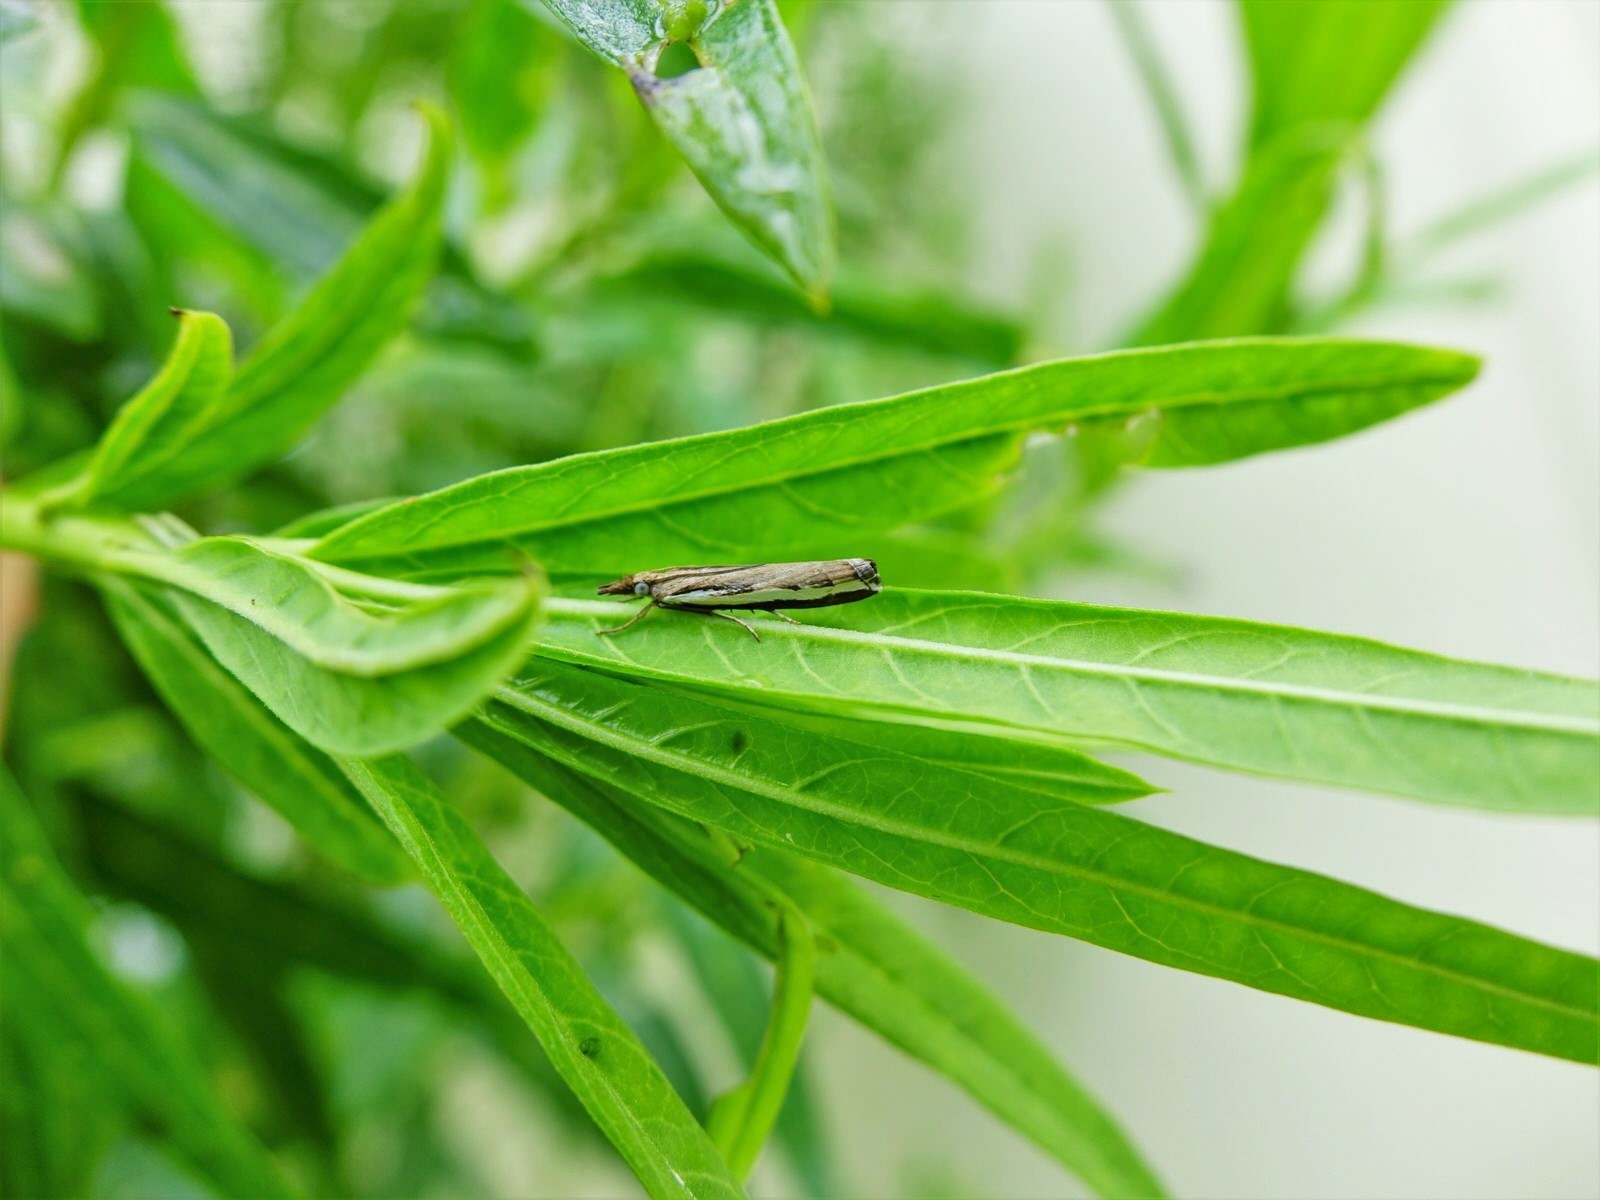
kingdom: Animalia
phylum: Arthropoda
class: Insecta
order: Lepidoptera
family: Crambidae
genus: Orocrambus
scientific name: Orocrambus flexuosellus
